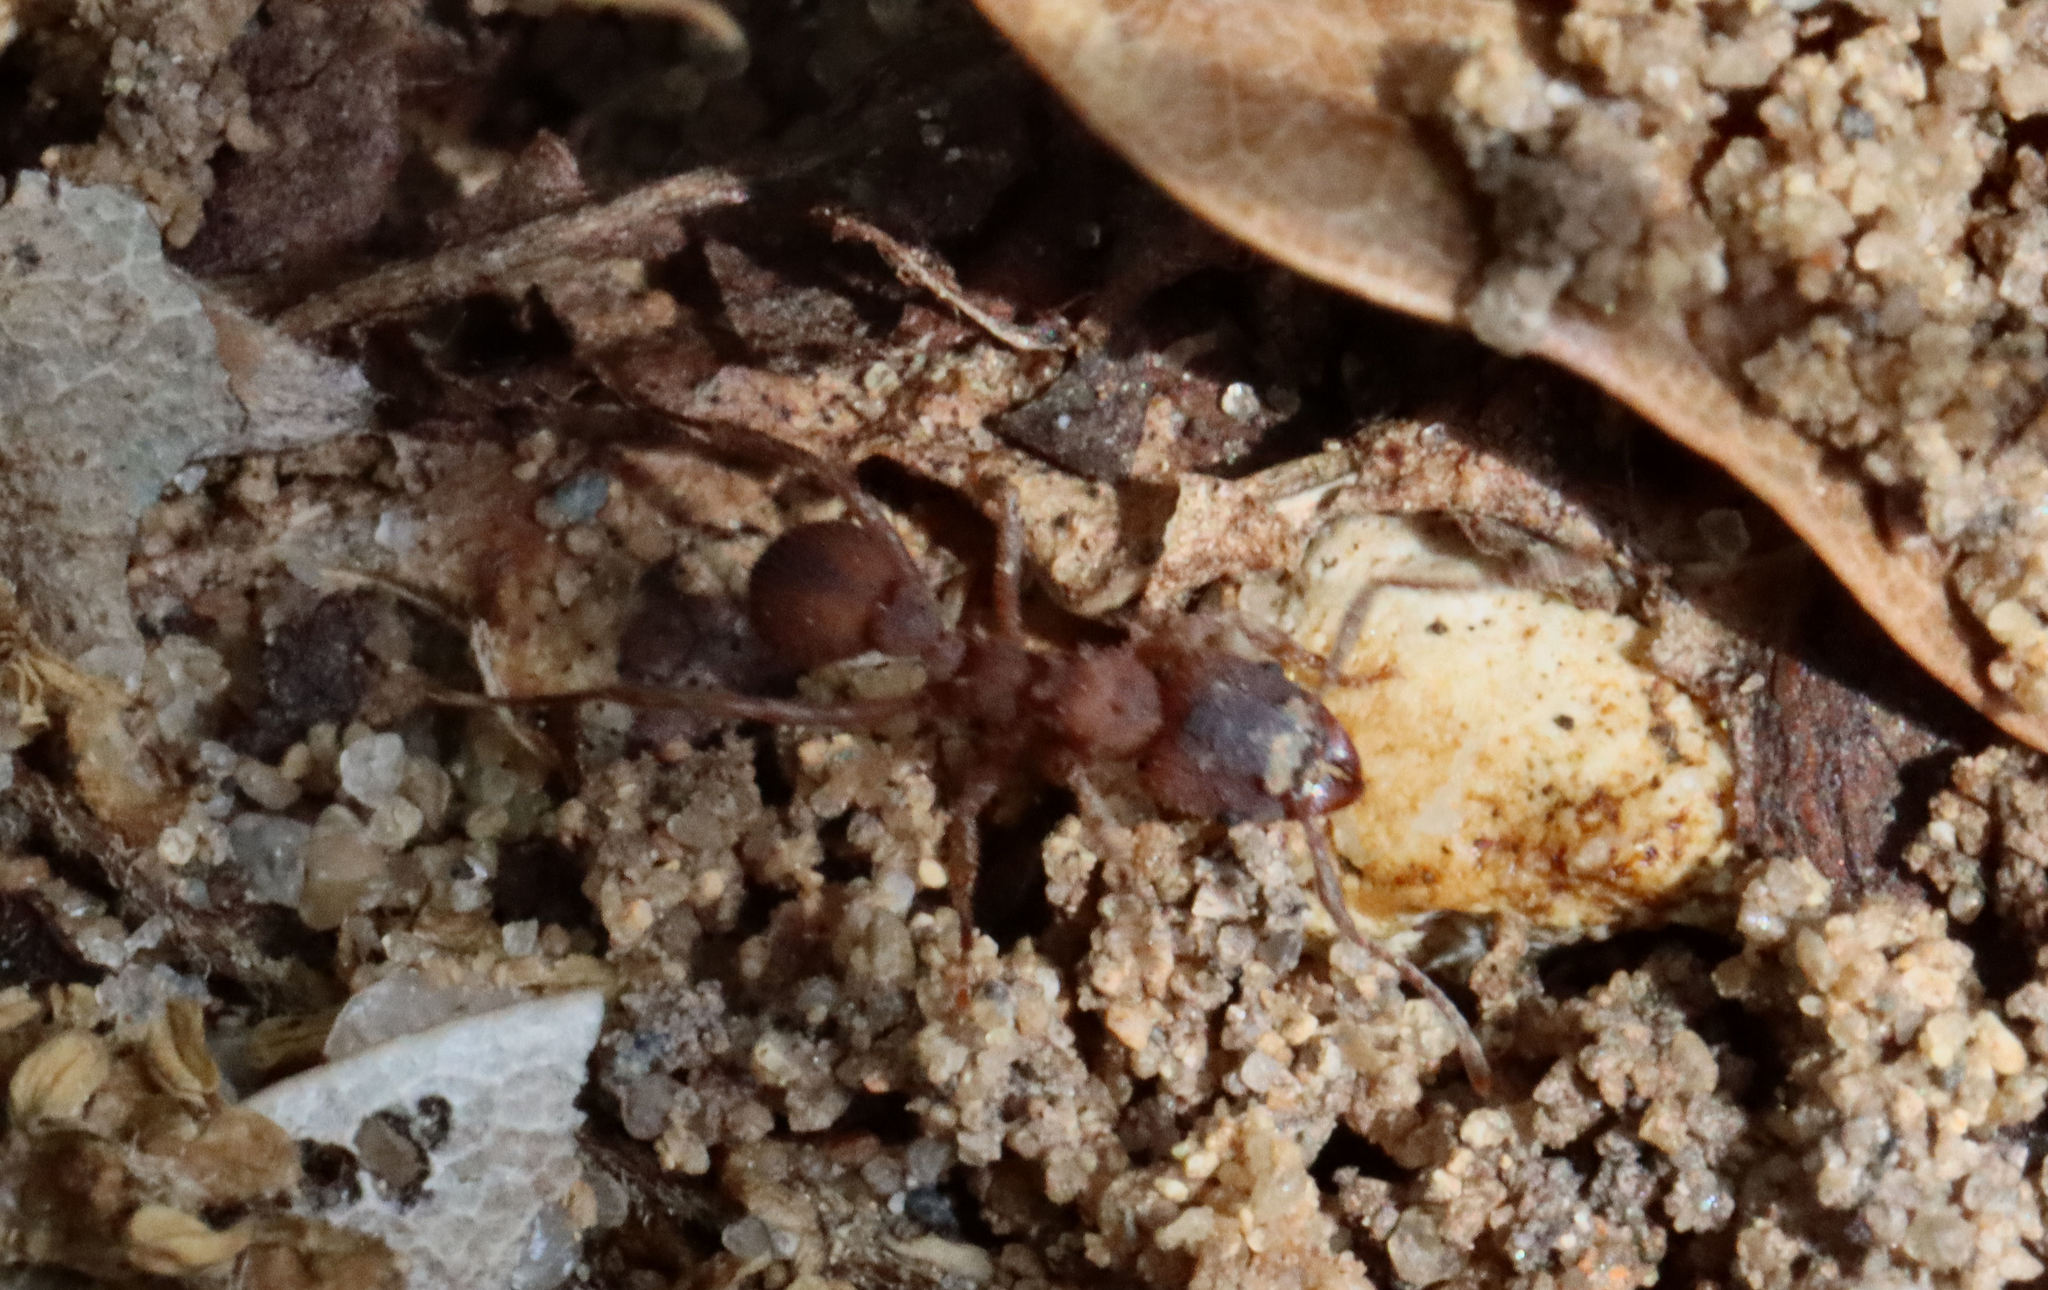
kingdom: Animalia
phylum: Arthropoda
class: Insecta
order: Hymenoptera
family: Formicidae
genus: Trachymyrmex
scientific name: Trachymyrmex septentrionalis
